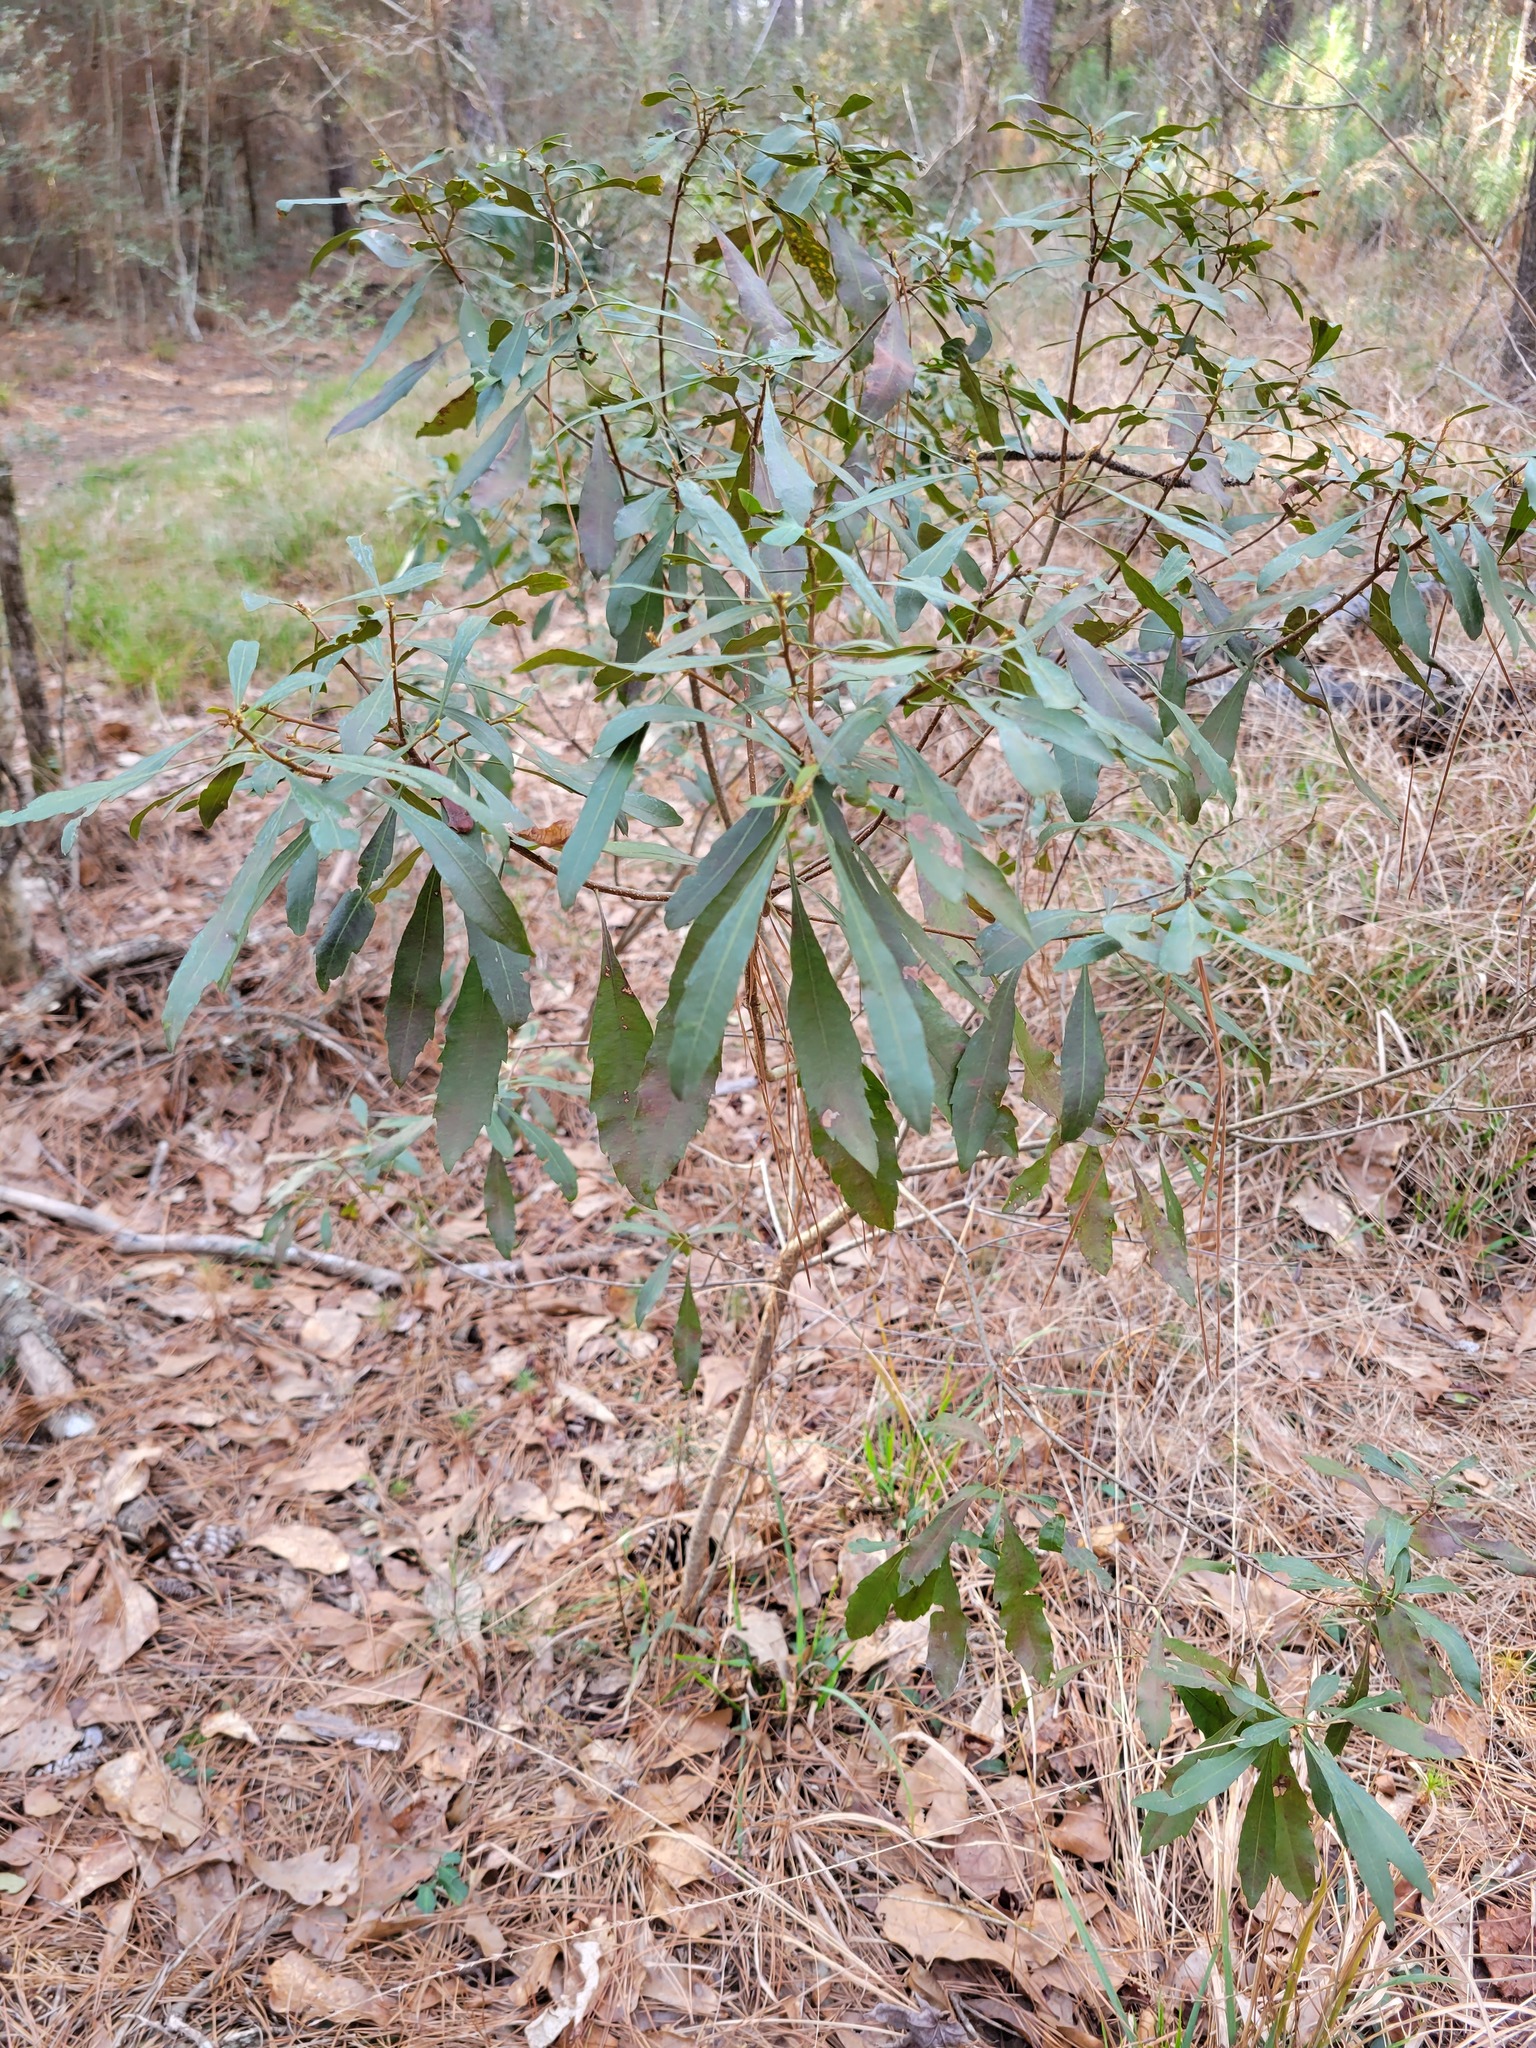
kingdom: Plantae
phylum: Tracheophyta
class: Magnoliopsida
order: Fagales
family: Myricaceae
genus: Morella
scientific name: Morella cerifera
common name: Wax myrtle
